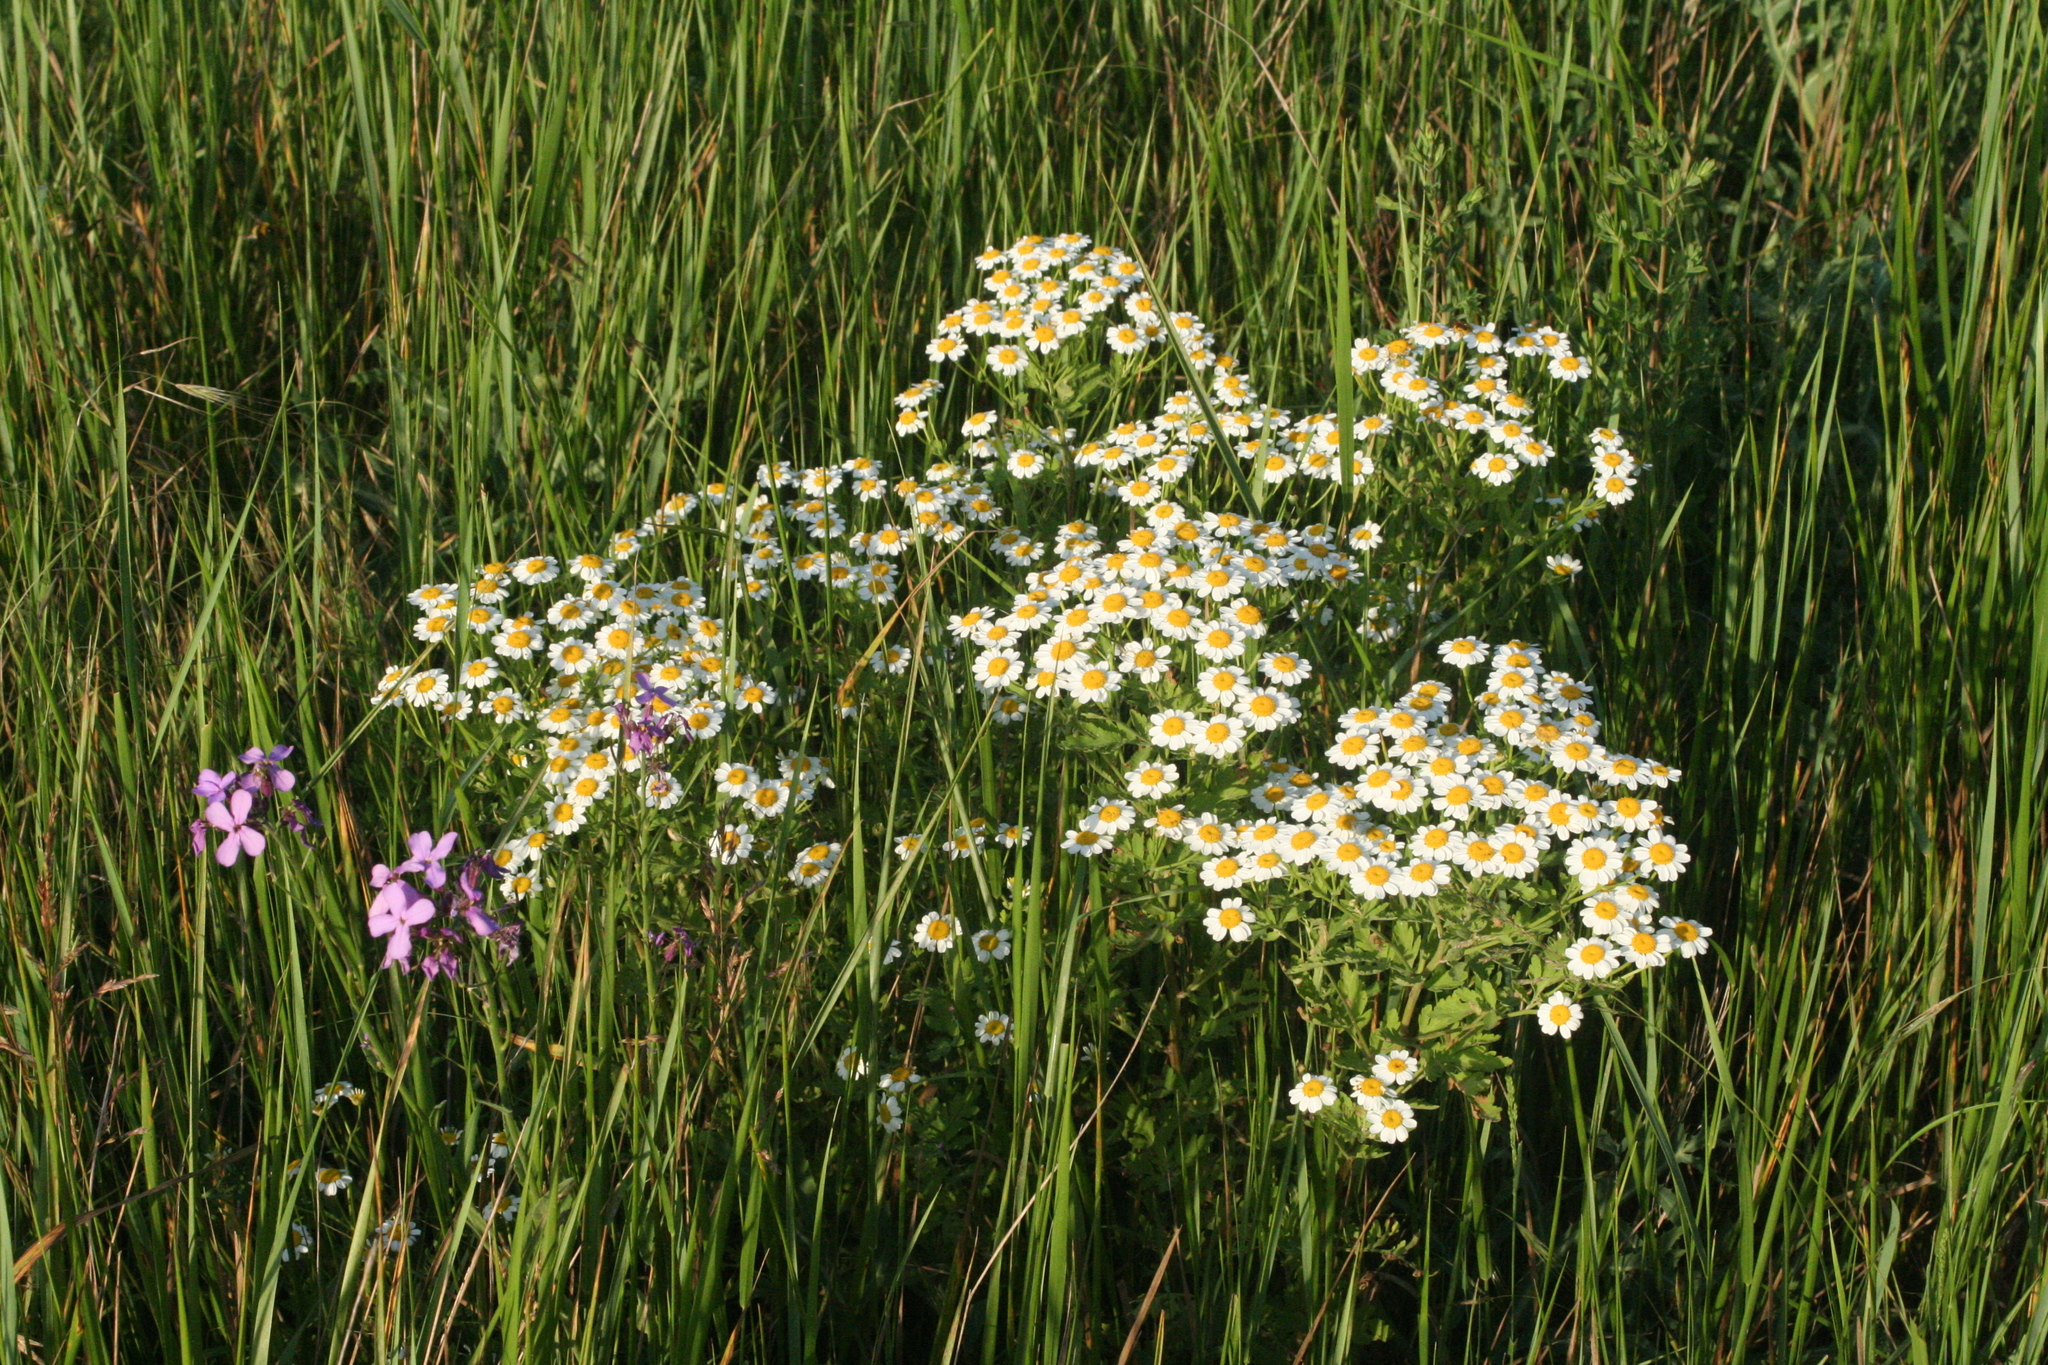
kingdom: Plantae
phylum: Tracheophyta
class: Magnoliopsida
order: Asterales
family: Asteraceae
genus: Tanacetum
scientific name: Tanacetum partheniifolium
